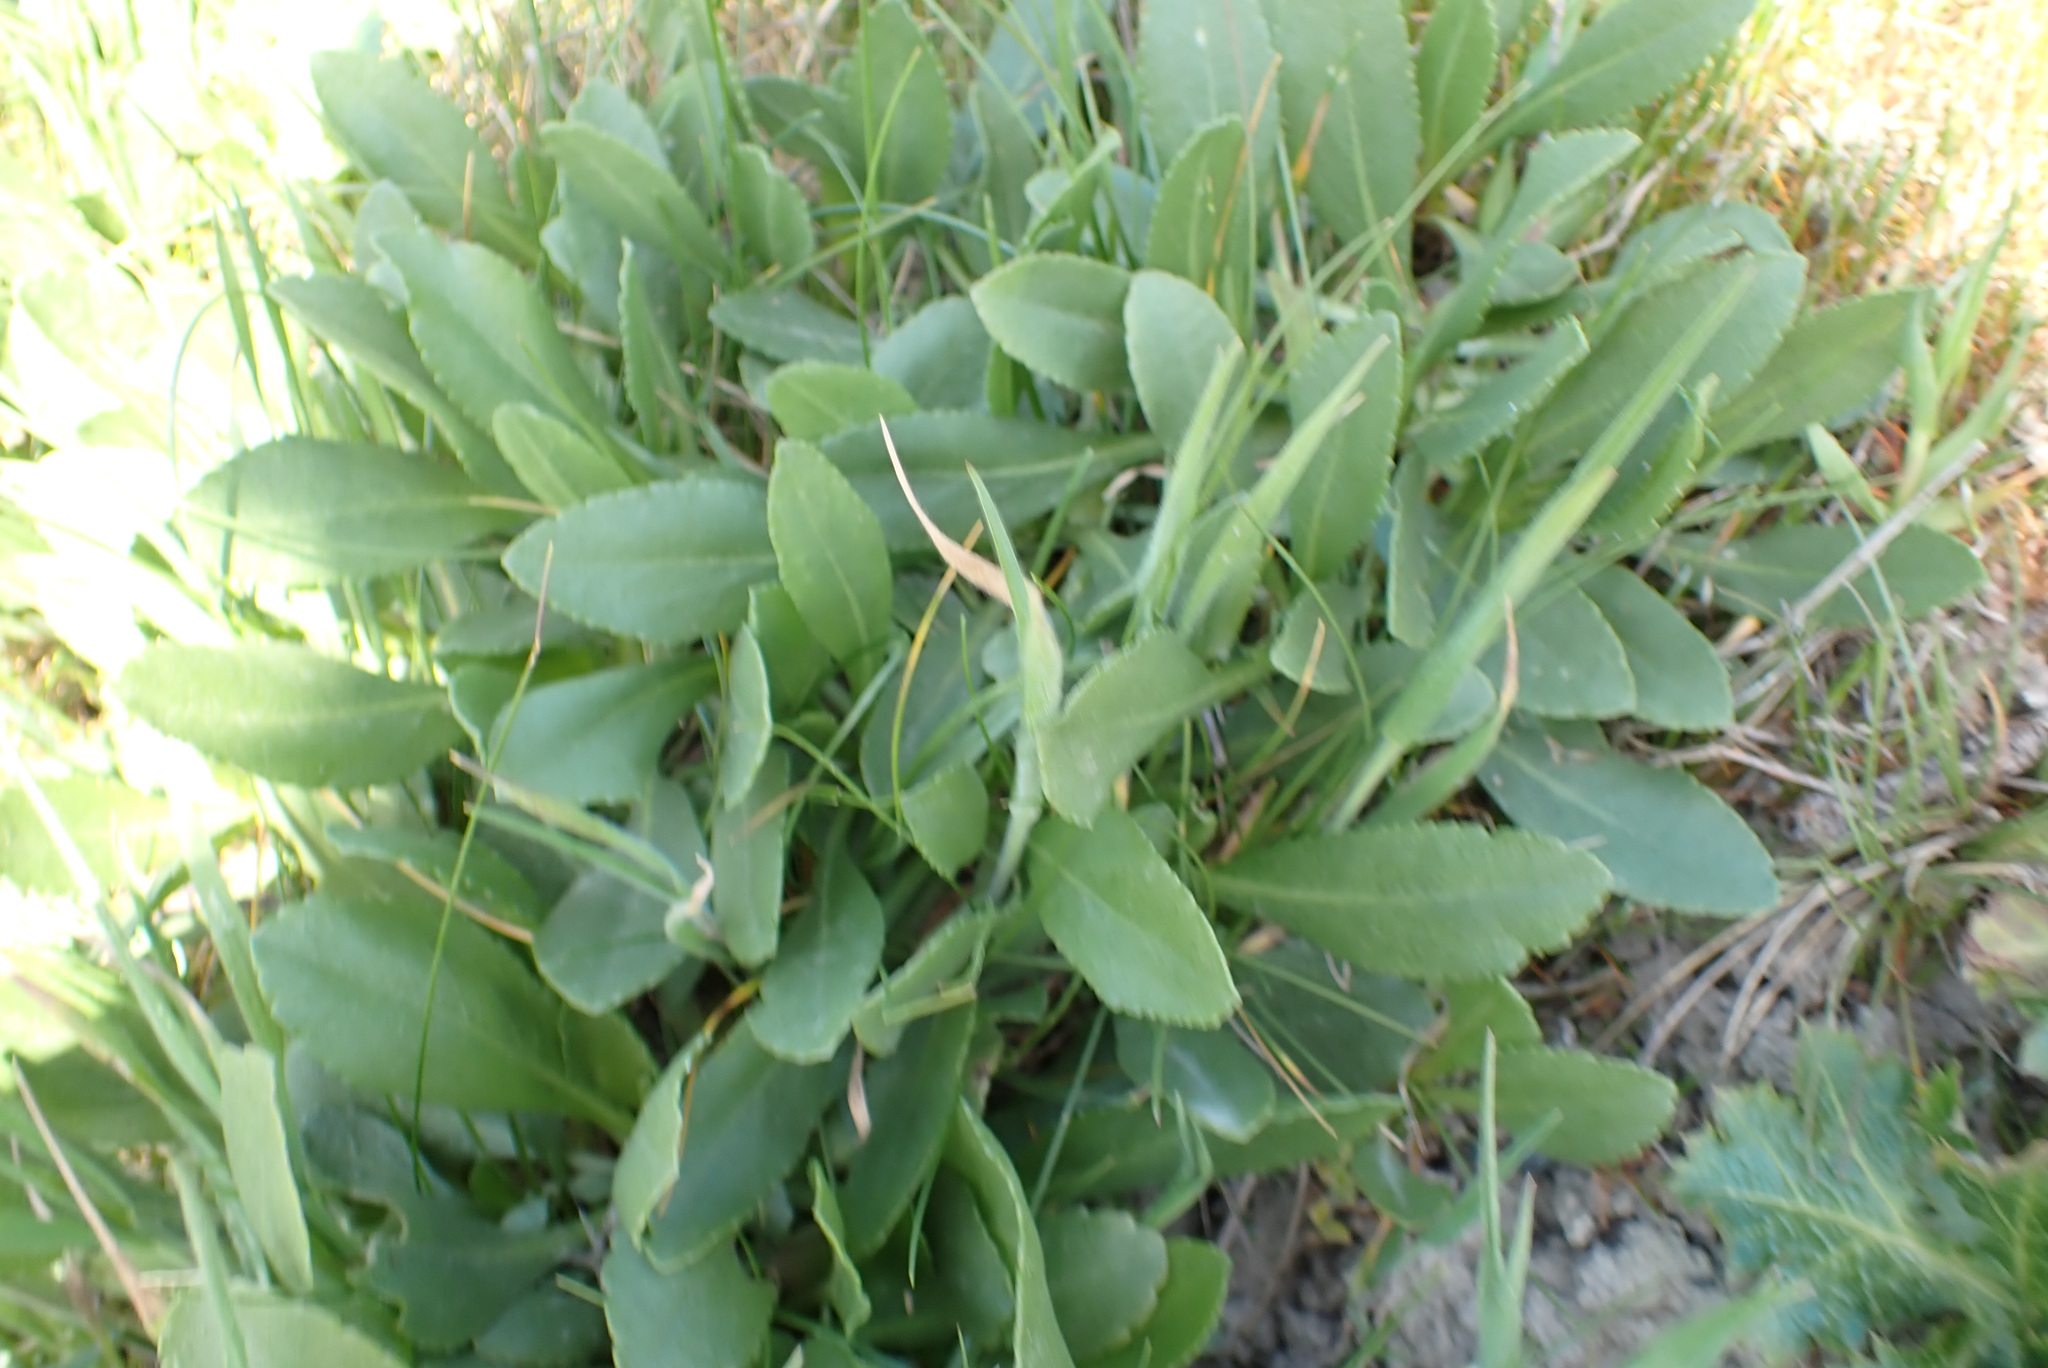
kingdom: Plantae
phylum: Tracheophyta
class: Magnoliopsida
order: Asterales
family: Asteraceae
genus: Grindelia
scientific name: Grindelia hirsutula
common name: Hairy gumweed
